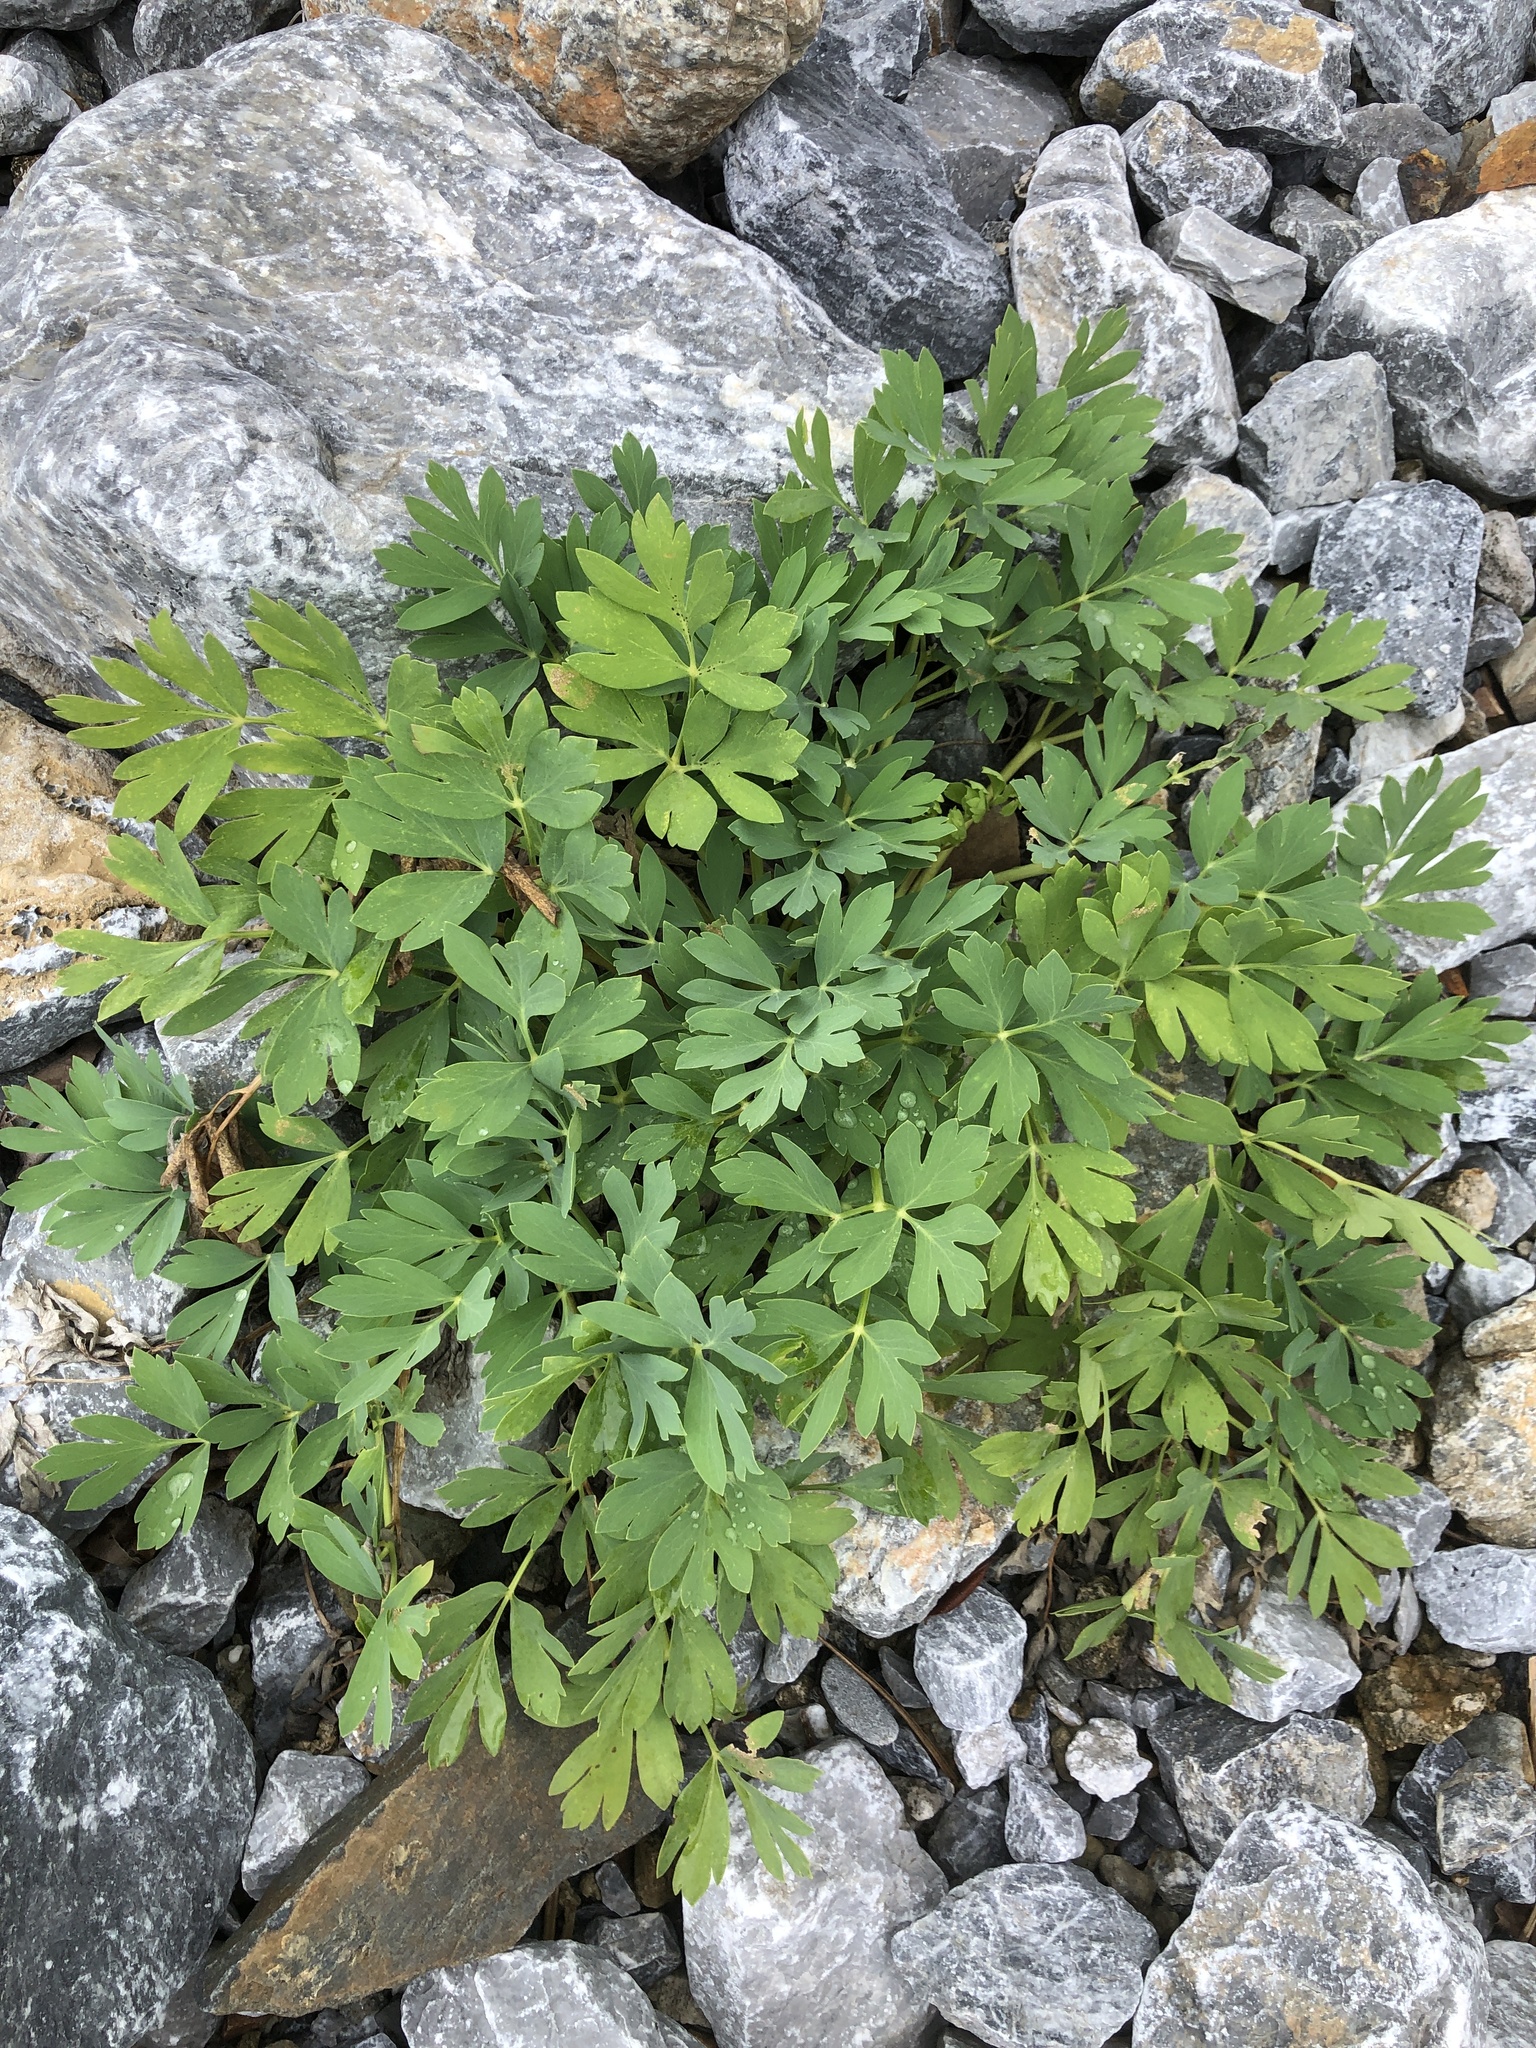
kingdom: Plantae
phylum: Tracheophyta
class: Magnoliopsida
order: Apiales
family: Apiaceae
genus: Peucedanum
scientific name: Peucedanum japonicum
